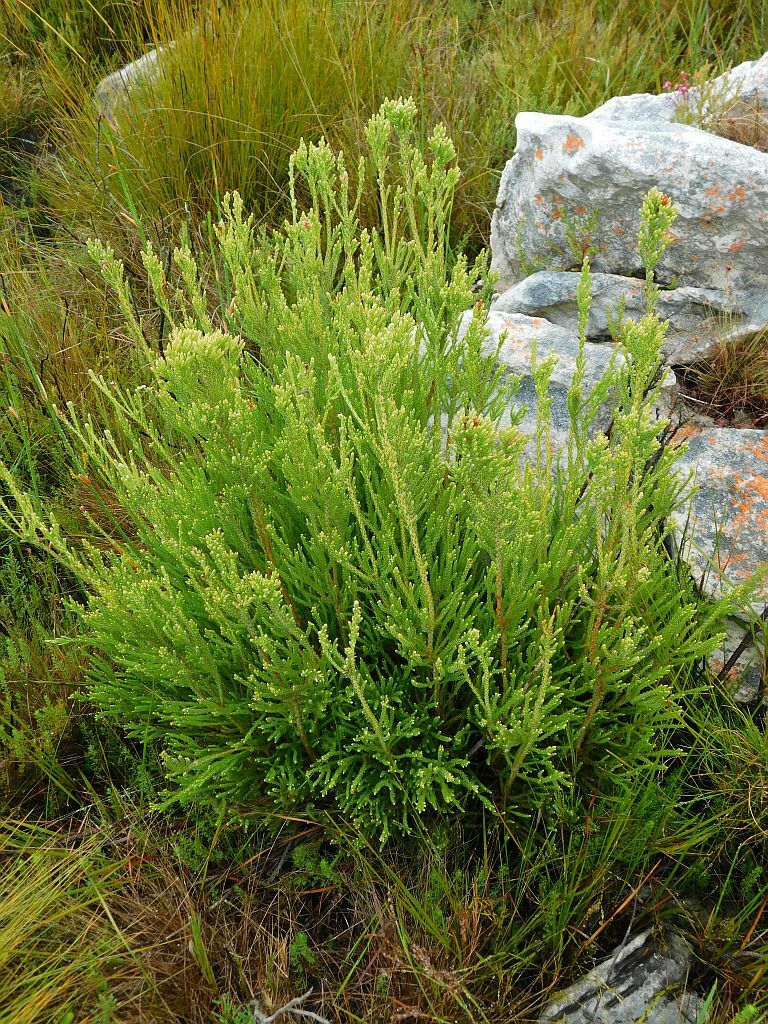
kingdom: Plantae
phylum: Tracheophyta
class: Magnoliopsida
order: Bruniales
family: Bruniaceae
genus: Brunia
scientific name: Brunia paleacea
